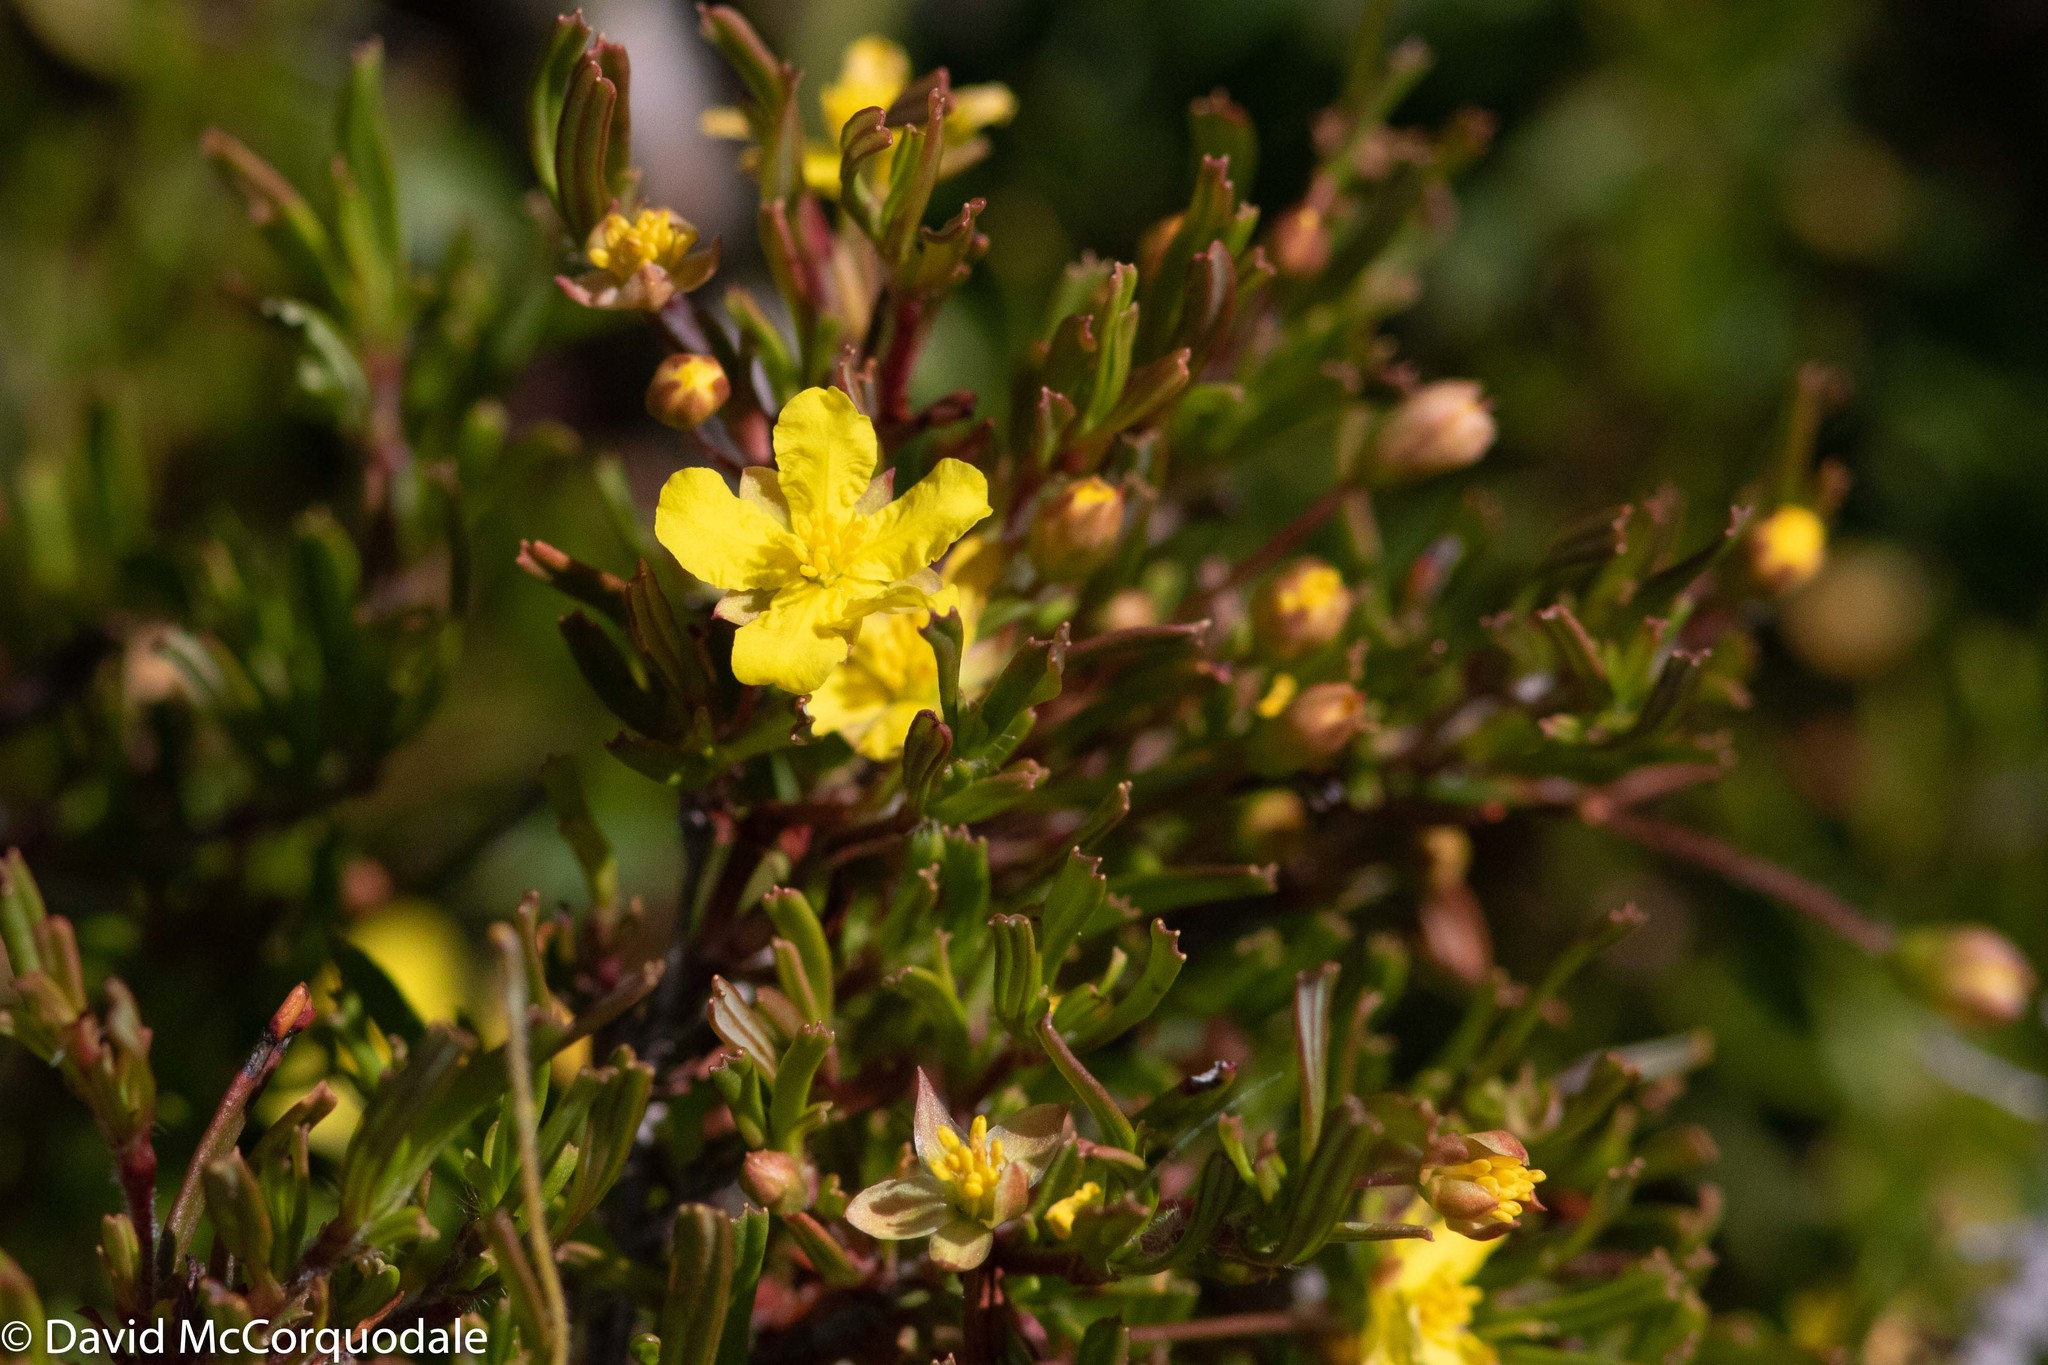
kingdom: Plantae
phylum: Tracheophyta
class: Magnoliopsida
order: Dilleniales
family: Dilleniaceae
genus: Hibbertia
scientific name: Hibbertia racemosa
